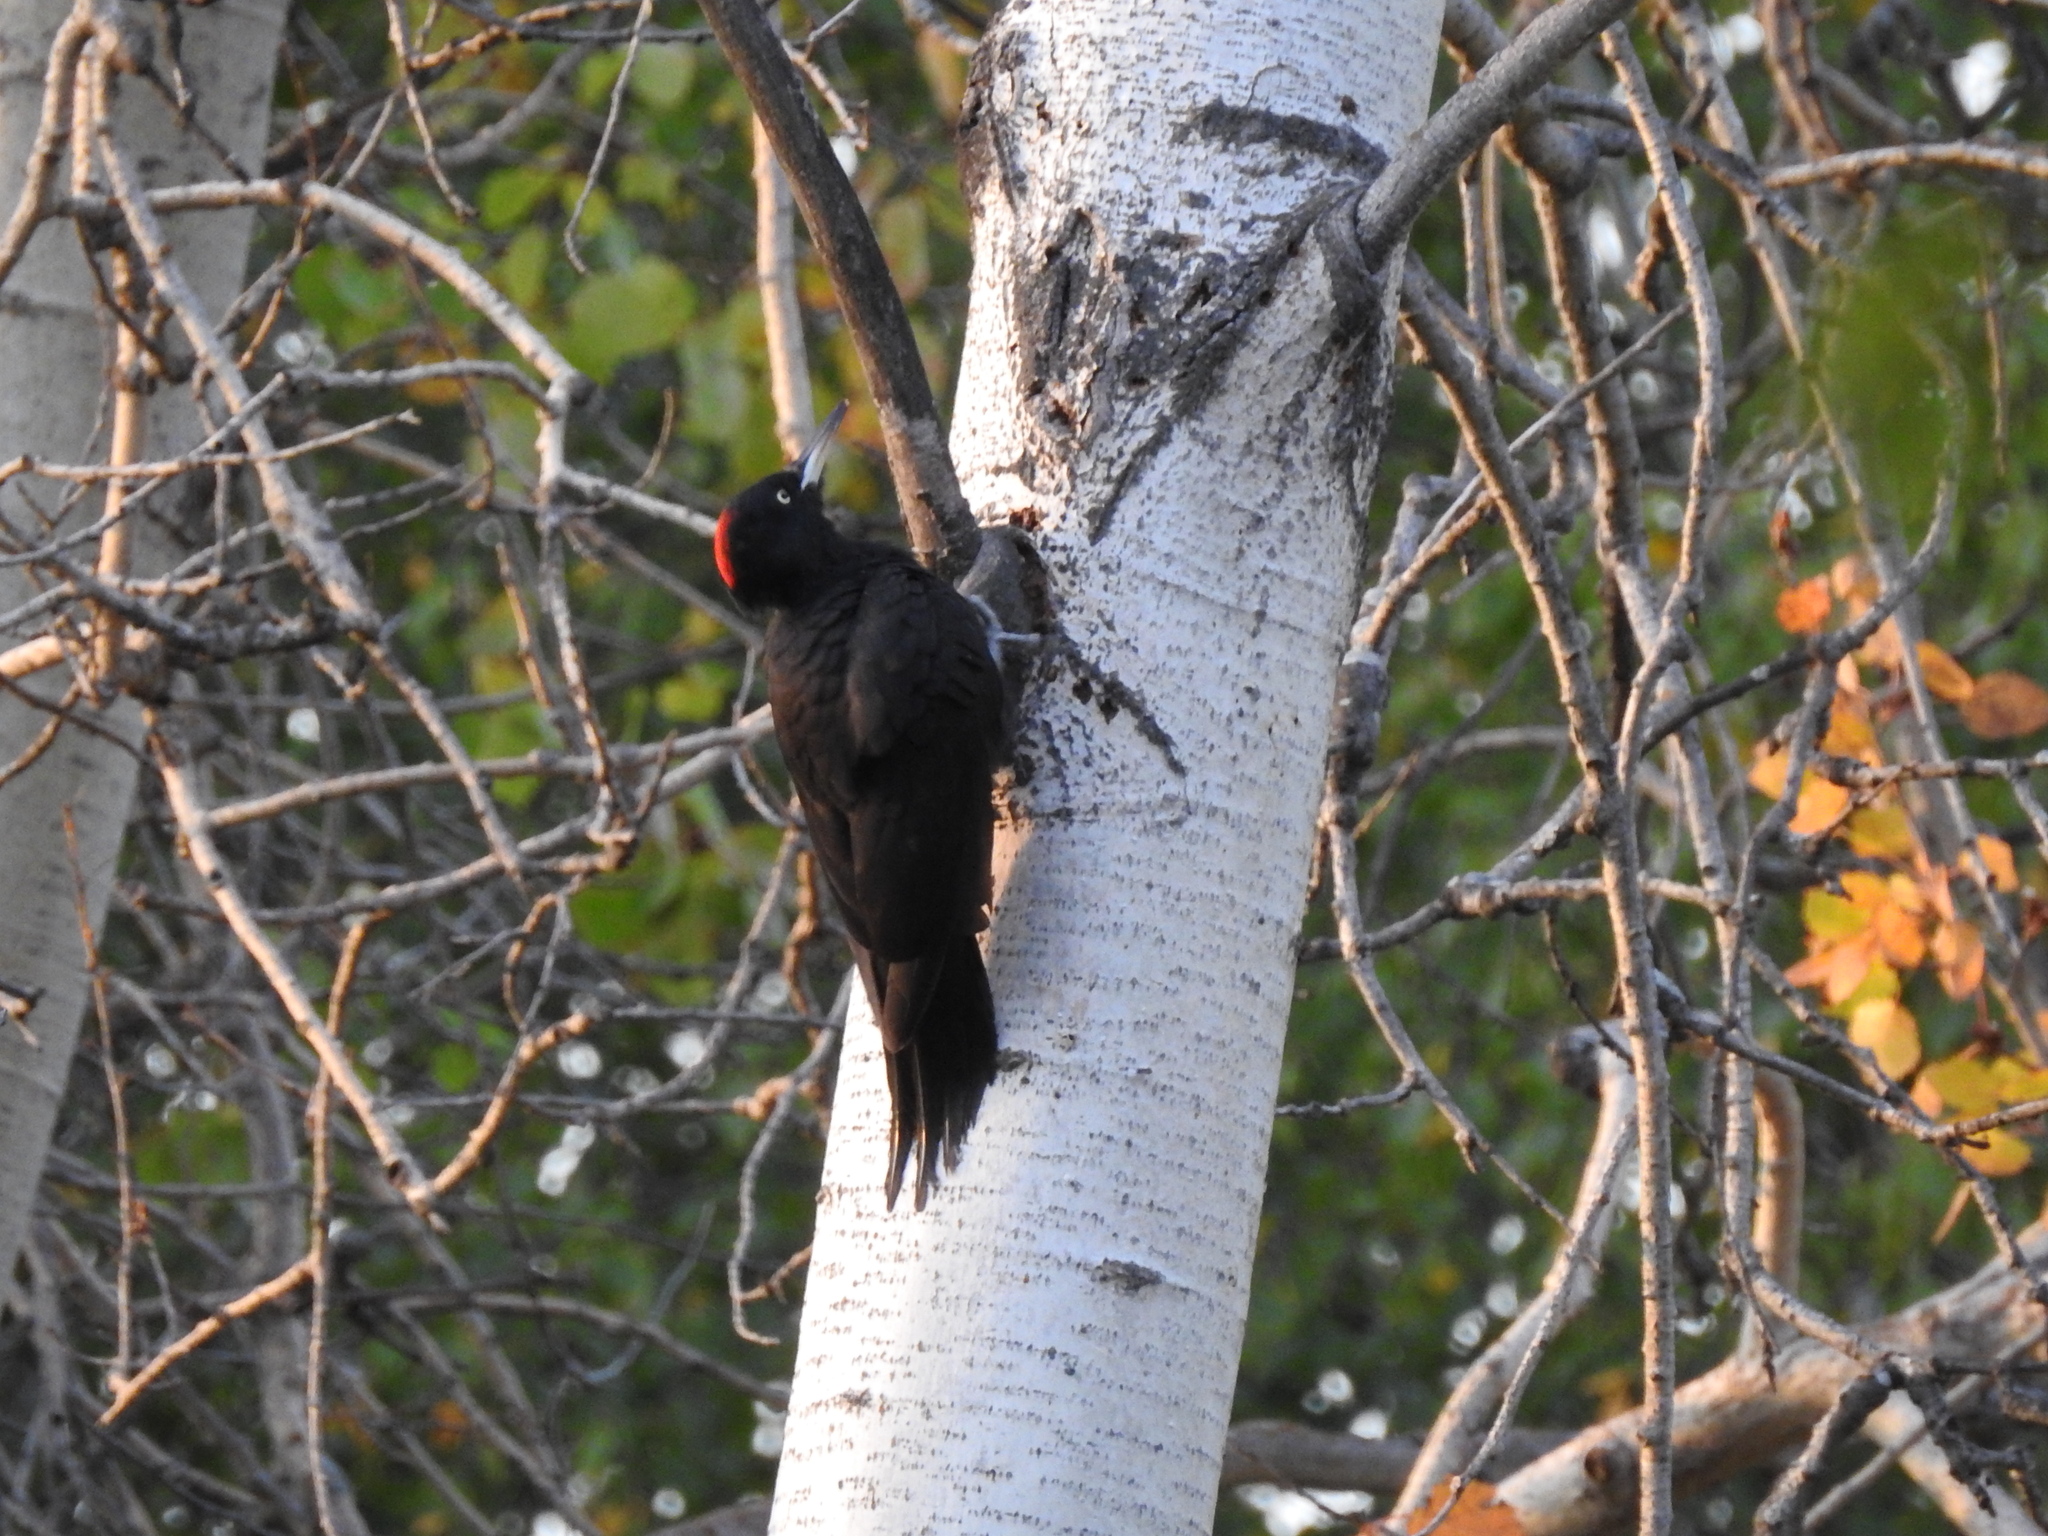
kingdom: Animalia
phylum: Chordata
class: Aves
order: Piciformes
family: Picidae
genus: Dryocopus
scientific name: Dryocopus martius
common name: Black woodpecker
